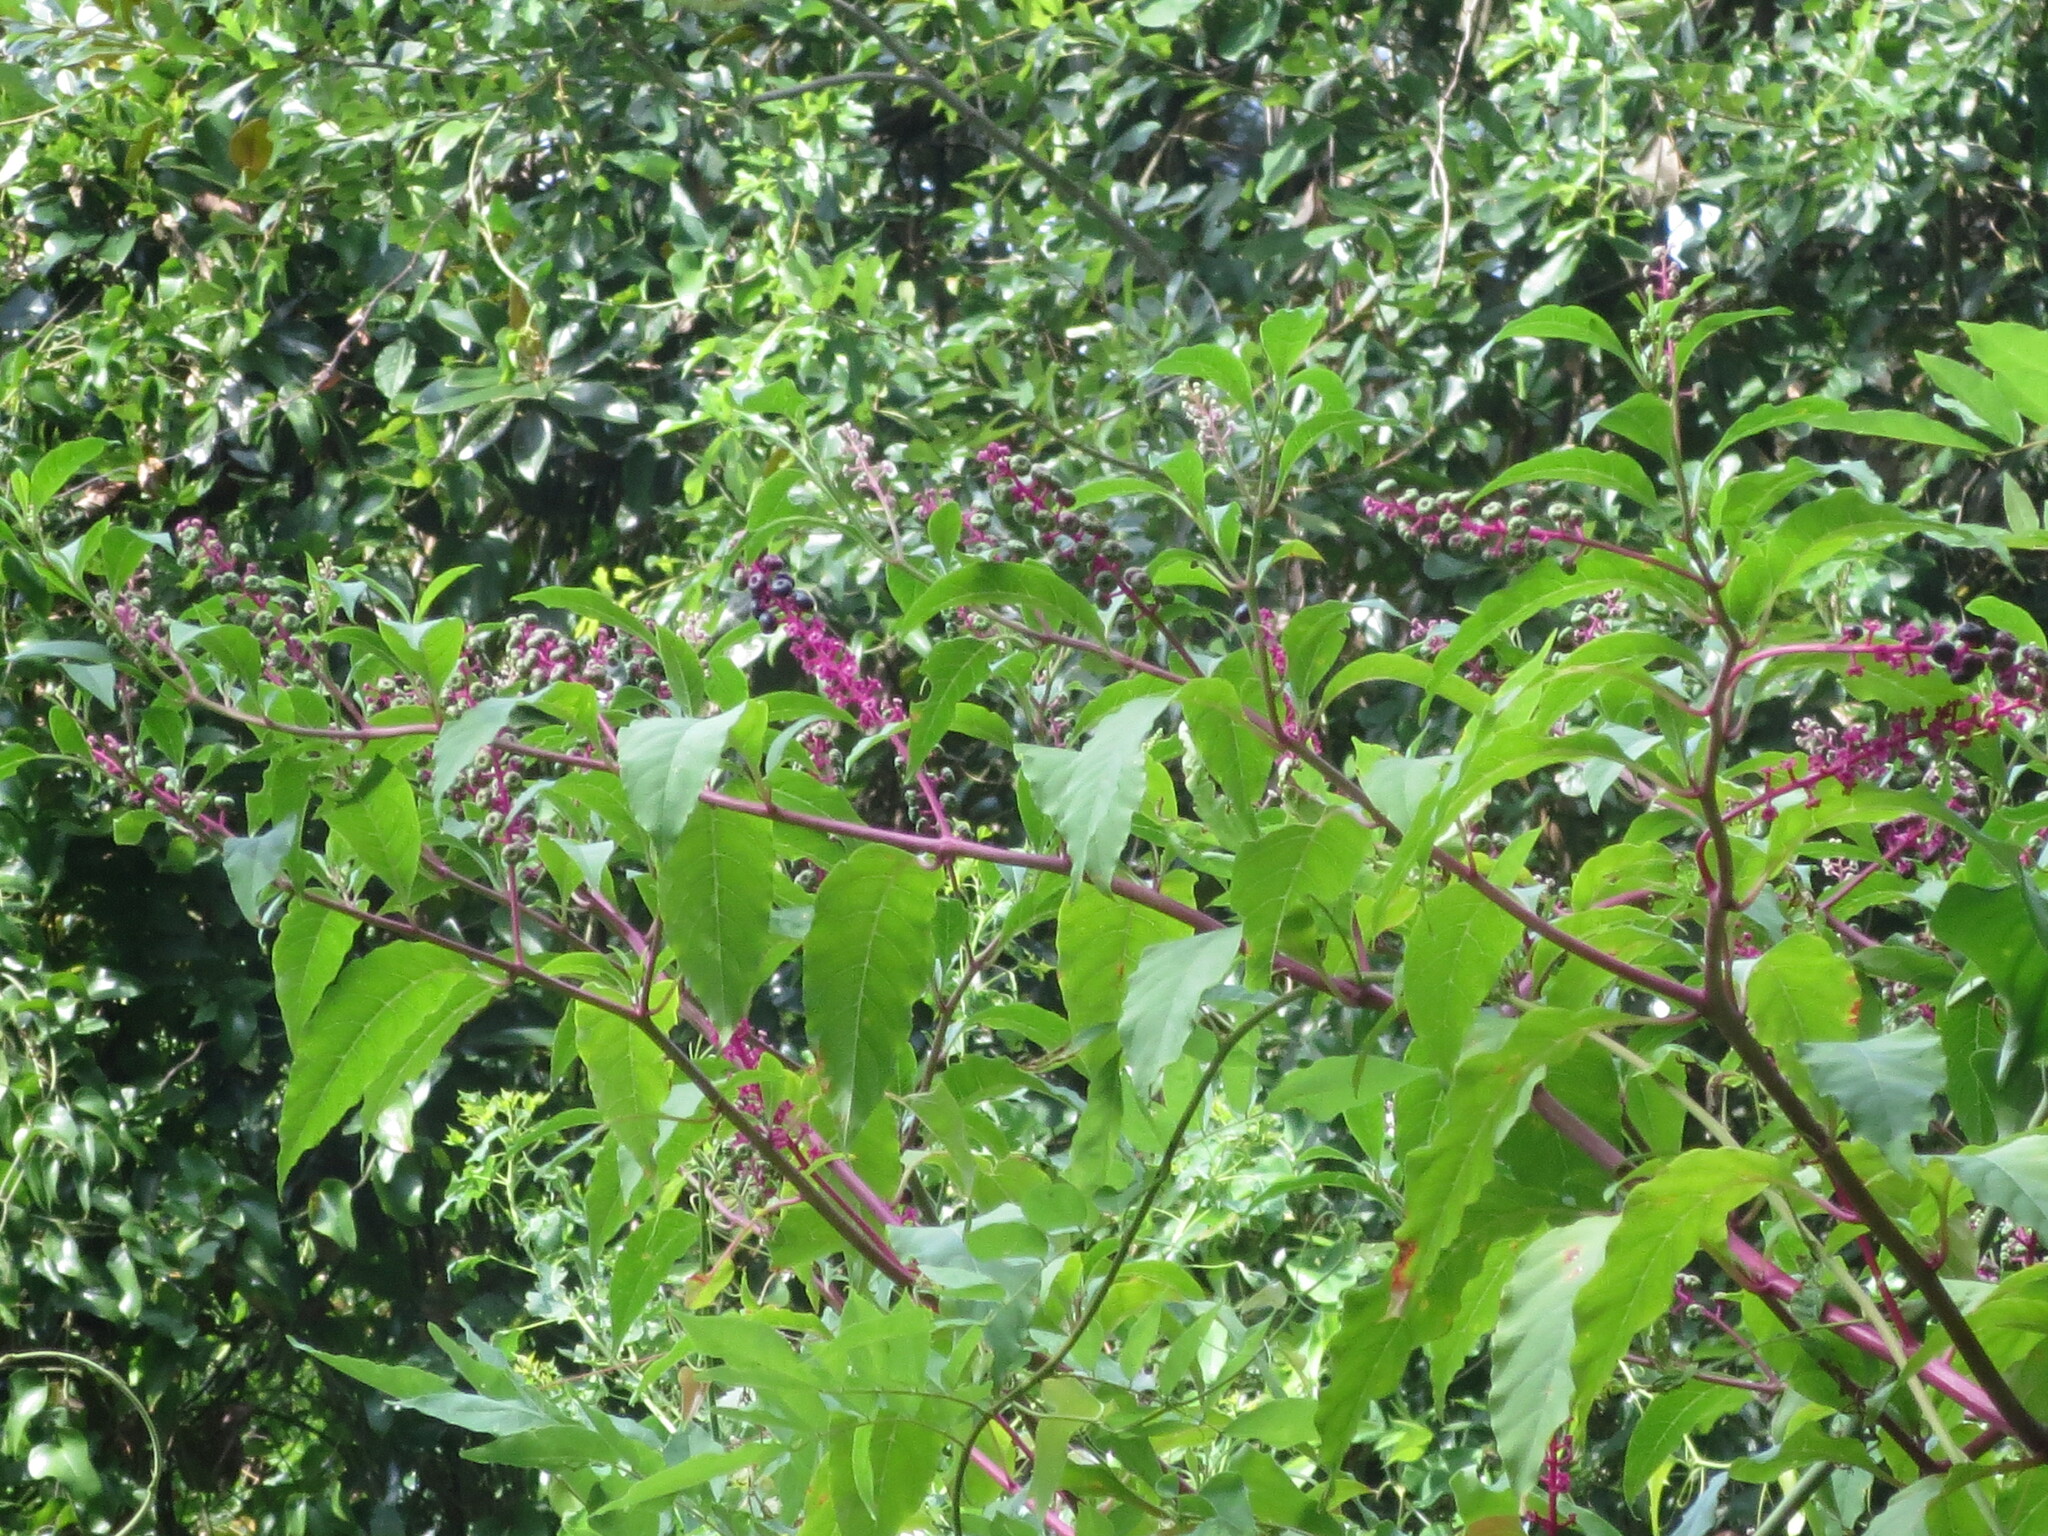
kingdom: Plantae
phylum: Tracheophyta
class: Magnoliopsida
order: Caryophyllales
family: Phytolaccaceae
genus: Phytolacca
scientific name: Phytolacca americana
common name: American pokeweed
